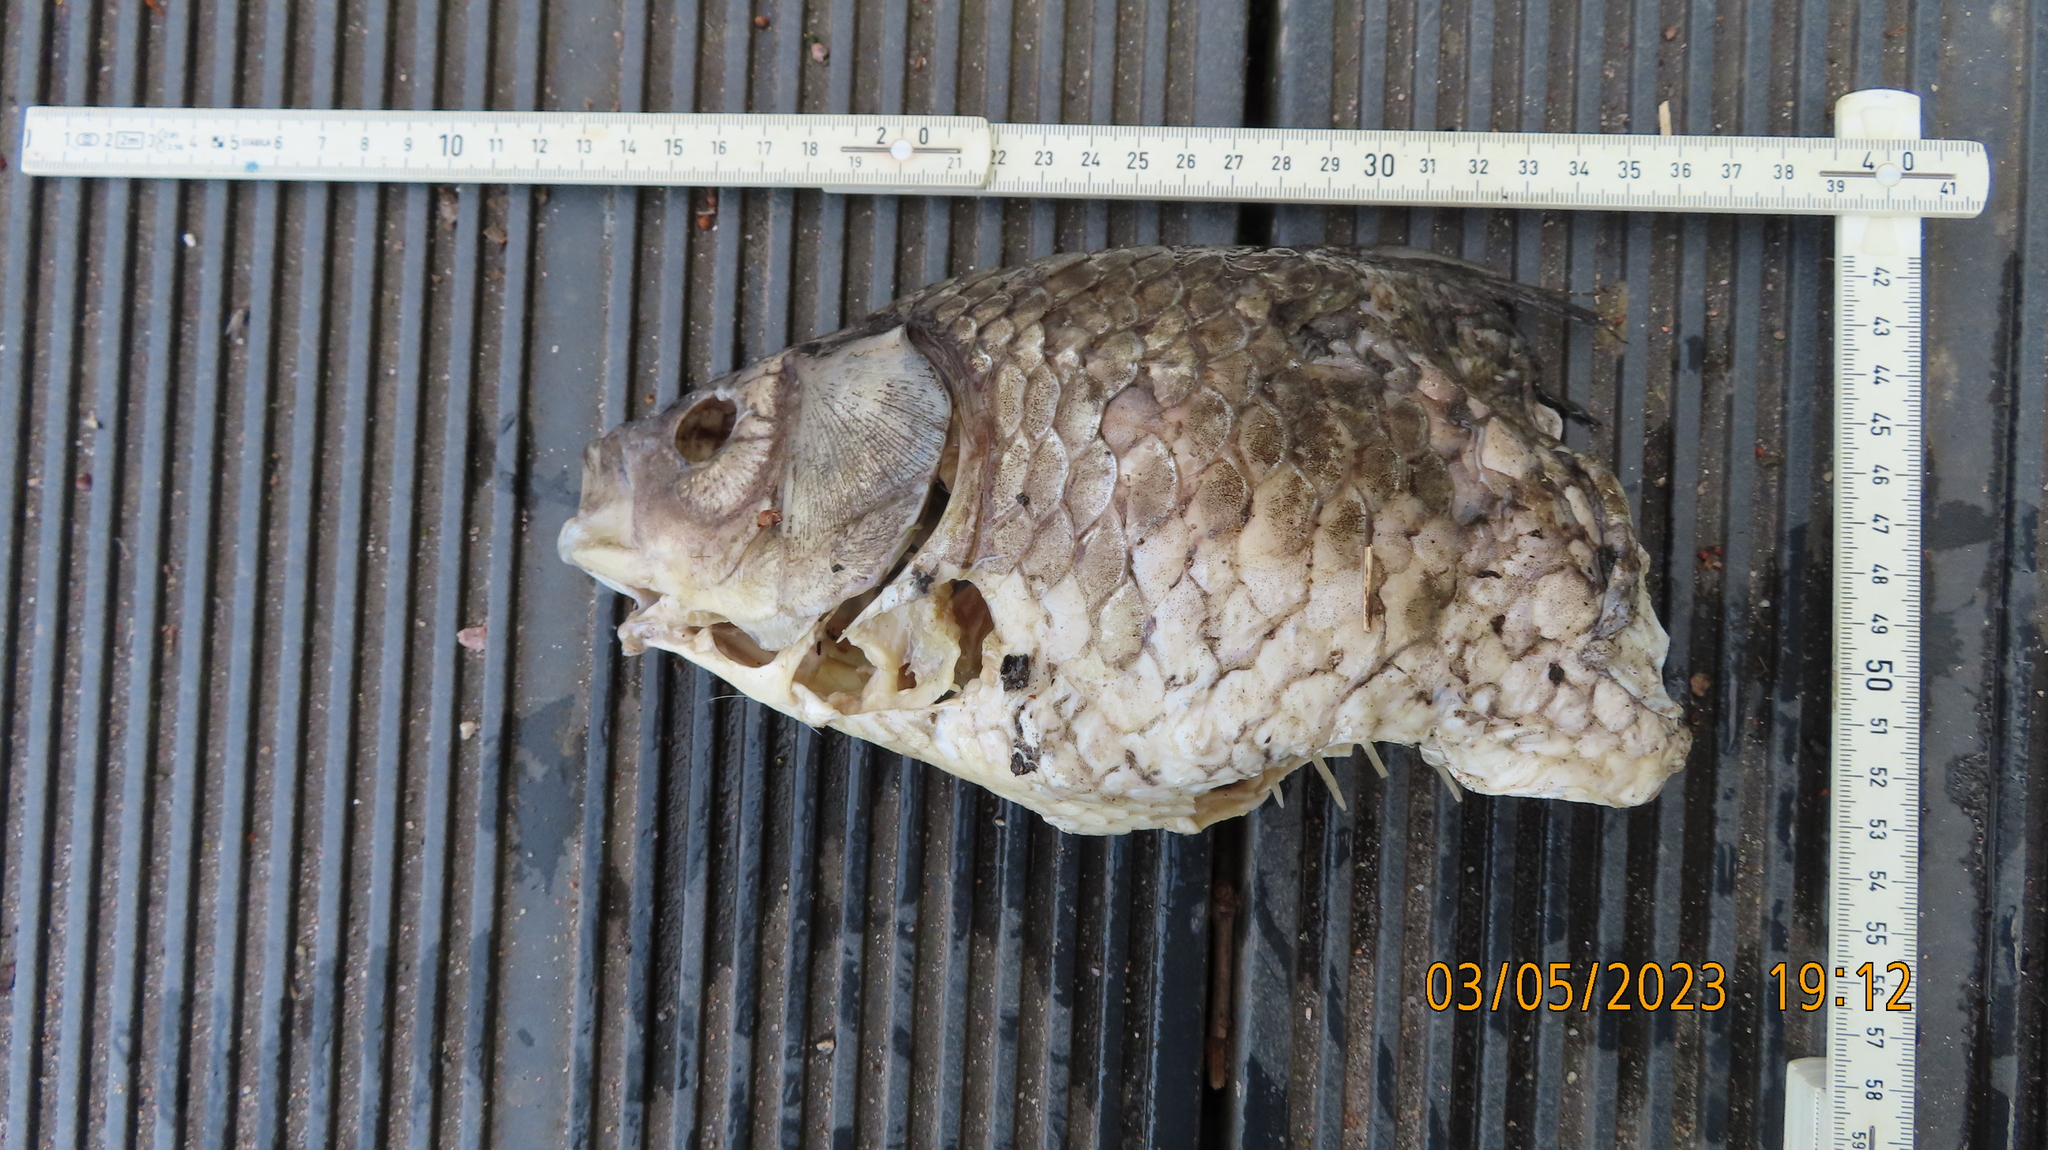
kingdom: Animalia
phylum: Chordata
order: Cypriniformes
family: Cyprinidae
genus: Carassius
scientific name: Carassius gibelio
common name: Prussian carp
